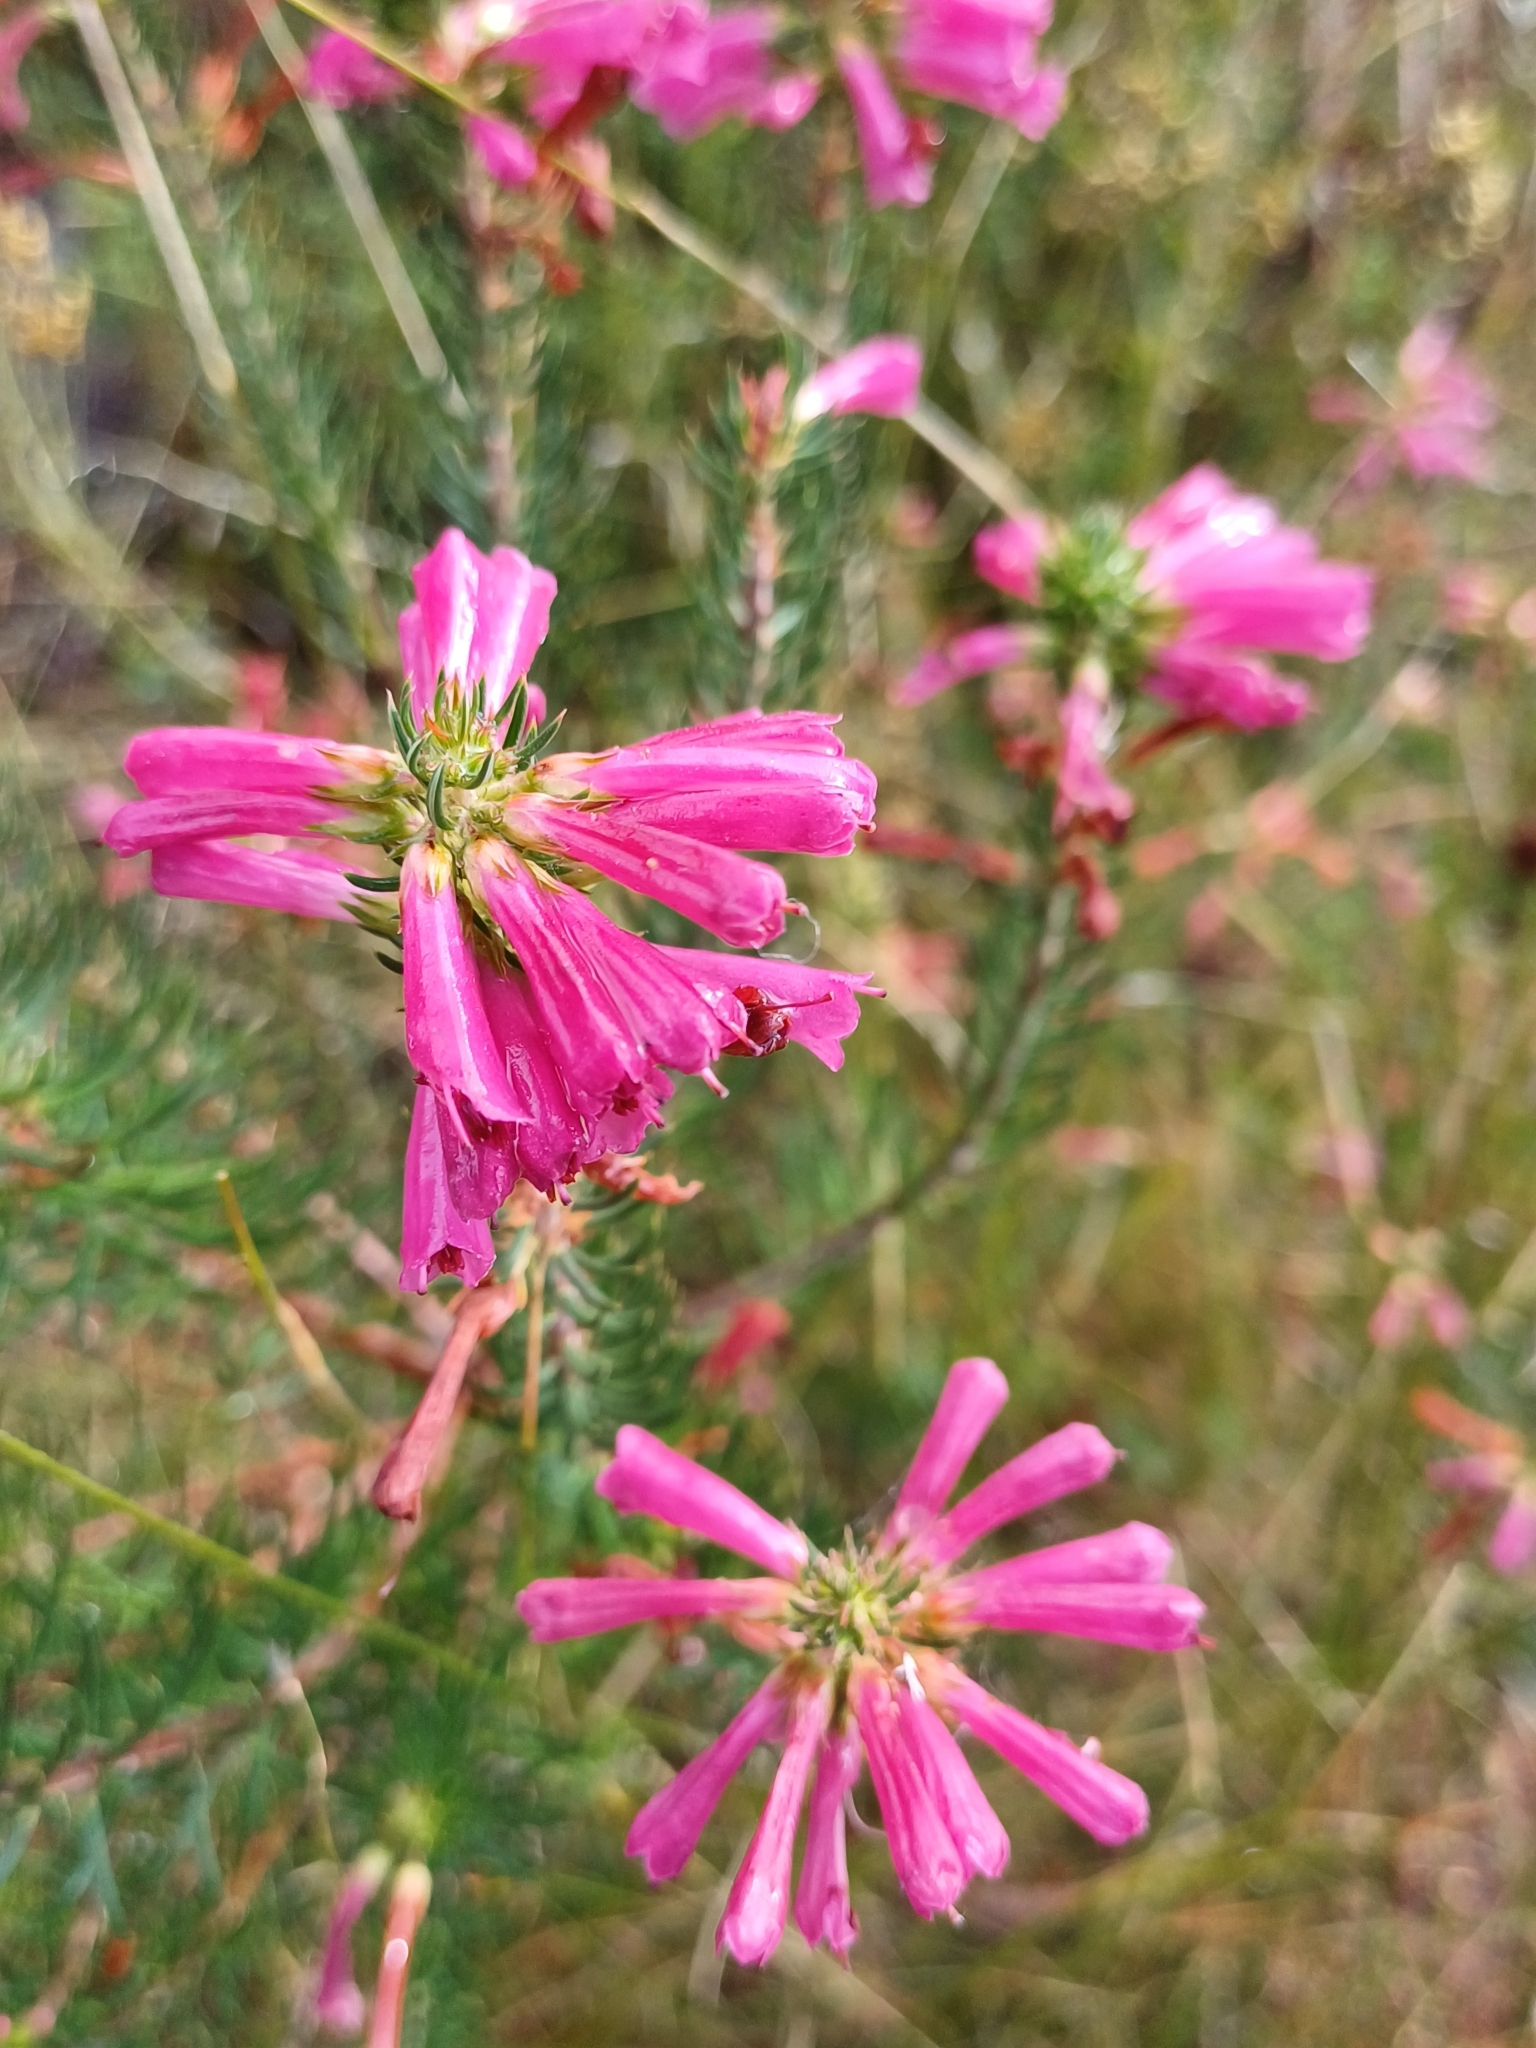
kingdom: Plantae
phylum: Tracheophyta
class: Magnoliopsida
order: Ericales
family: Ericaceae
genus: Erica
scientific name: Erica abietina
